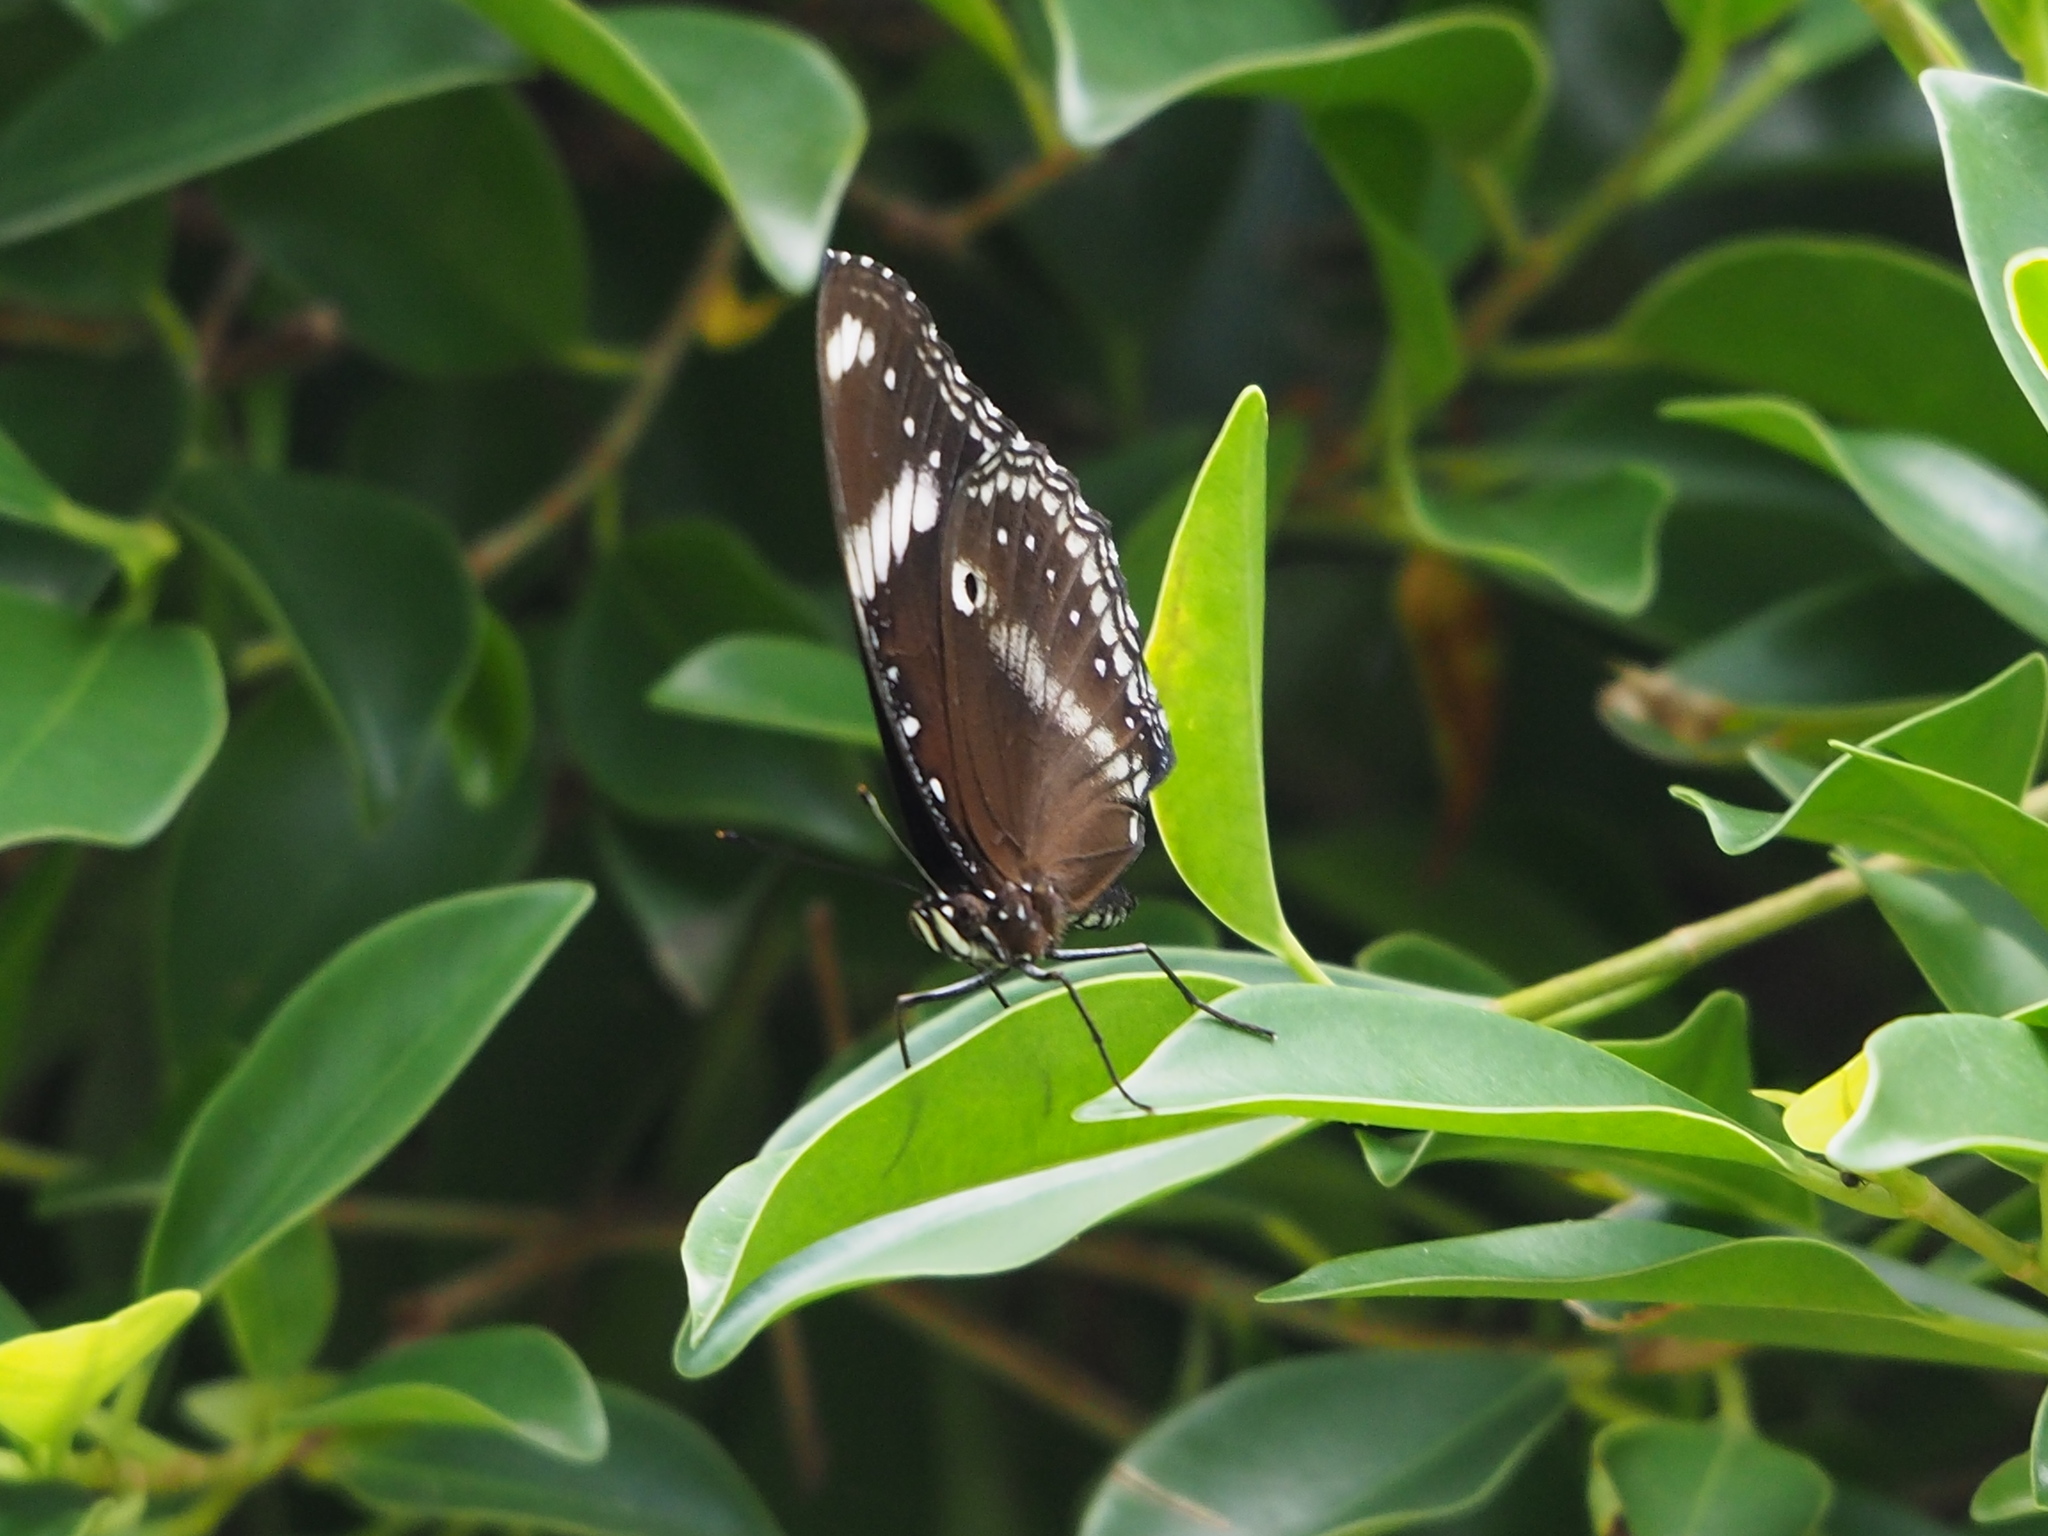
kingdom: Animalia
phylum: Arthropoda
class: Insecta
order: Lepidoptera
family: Nymphalidae
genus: Hypolimnas
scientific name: Hypolimnas bolina
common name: Great eggfly
